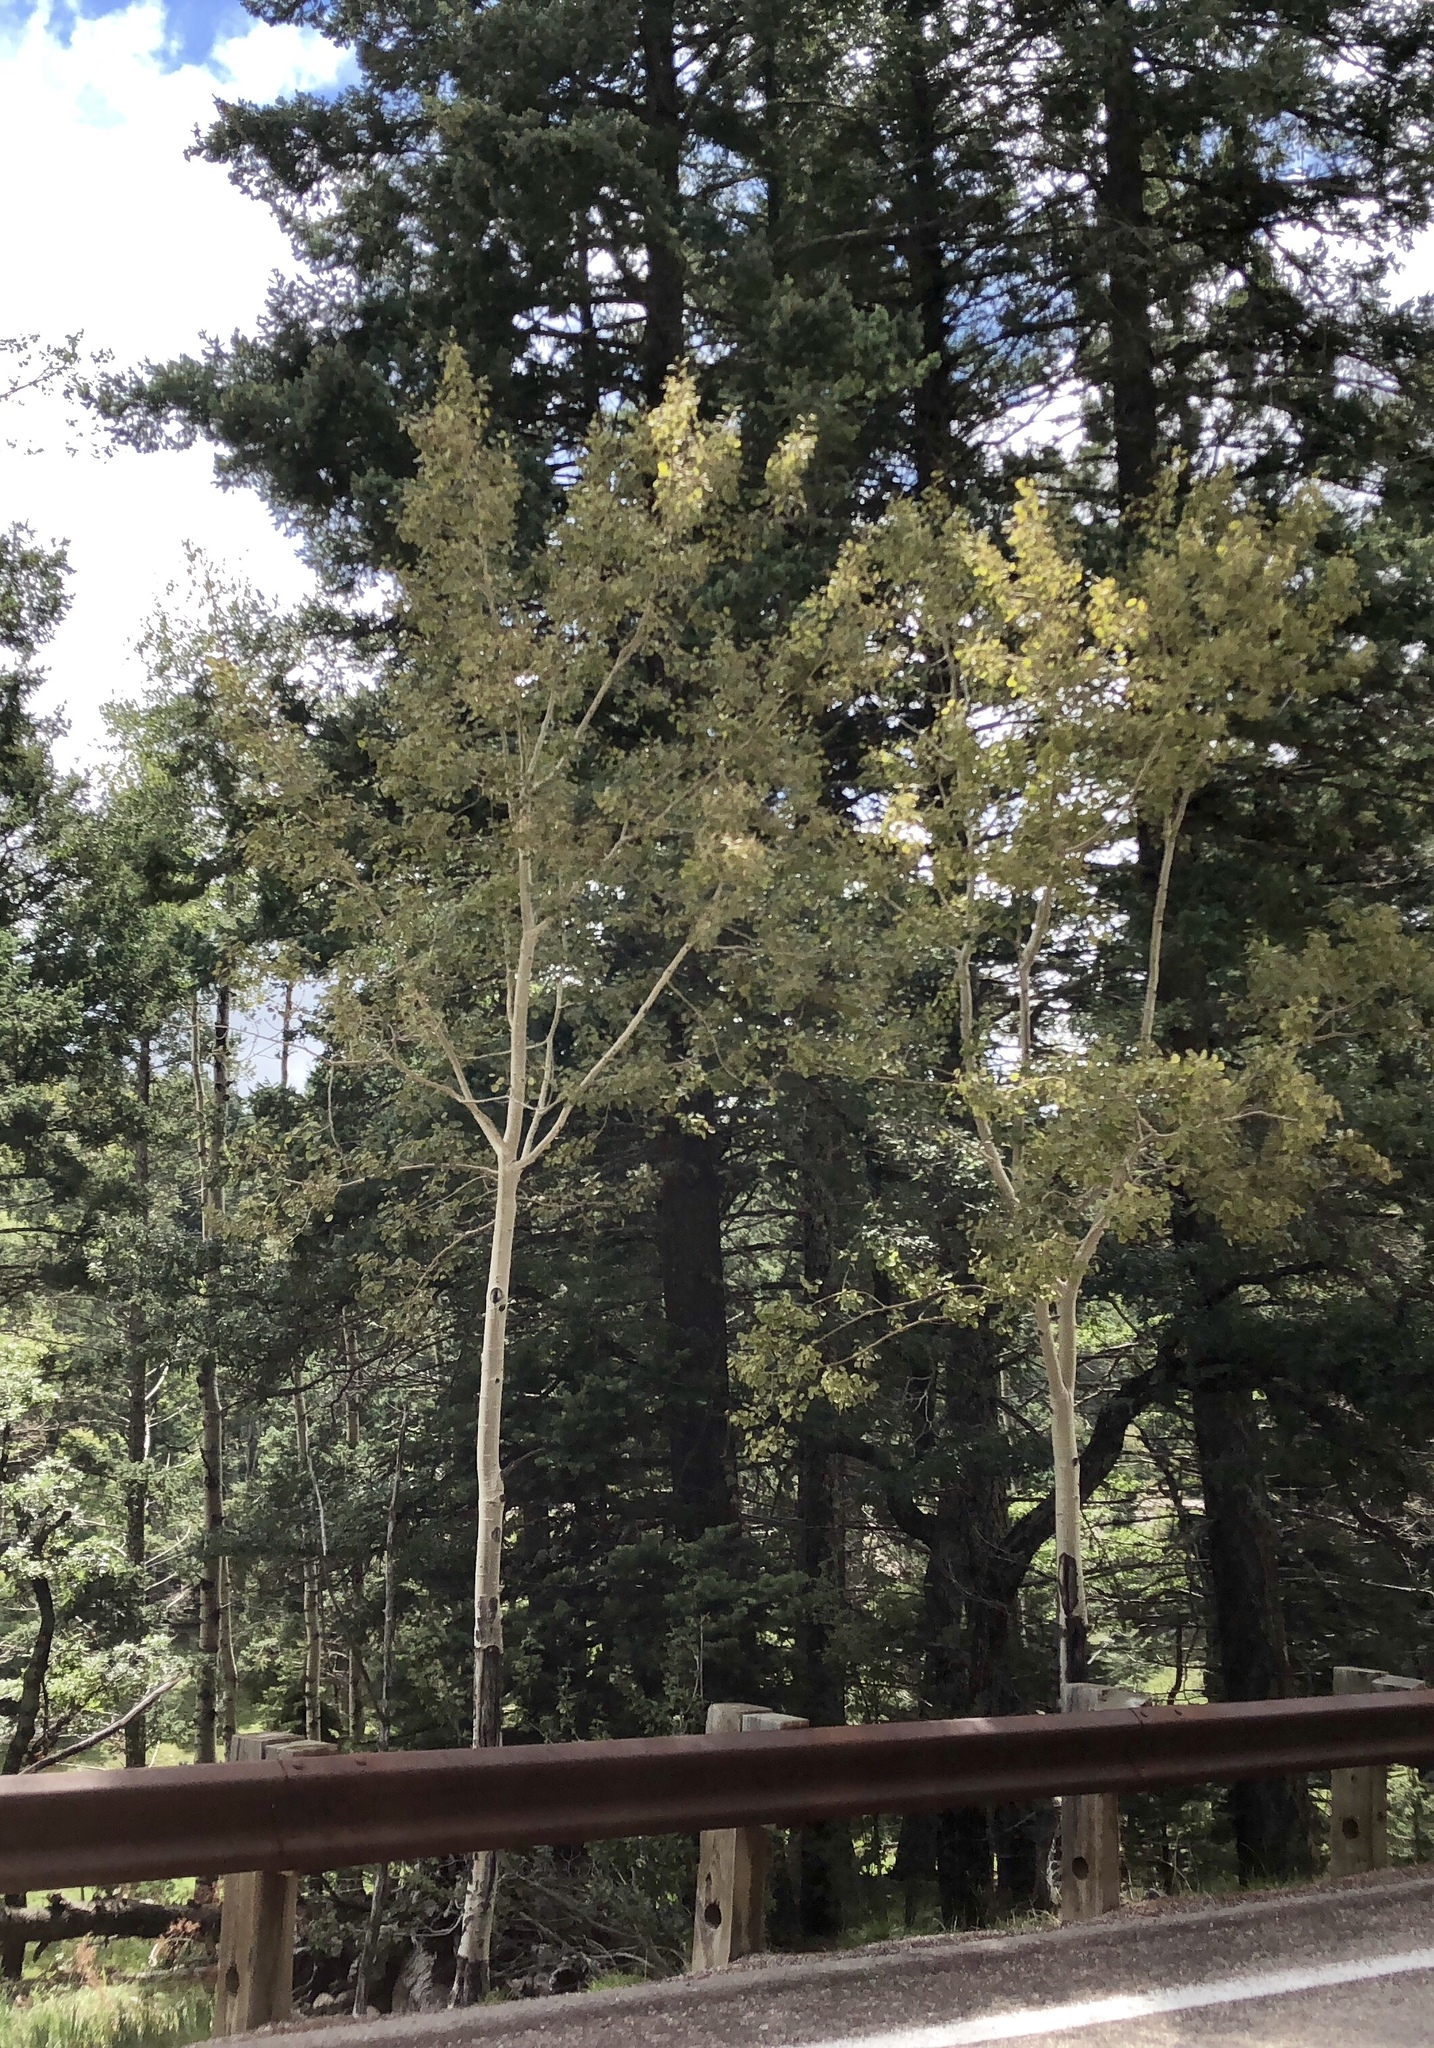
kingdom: Plantae
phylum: Tracheophyta
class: Magnoliopsida
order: Malpighiales
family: Salicaceae
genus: Populus
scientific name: Populus tremuloides
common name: Quaking aspen
